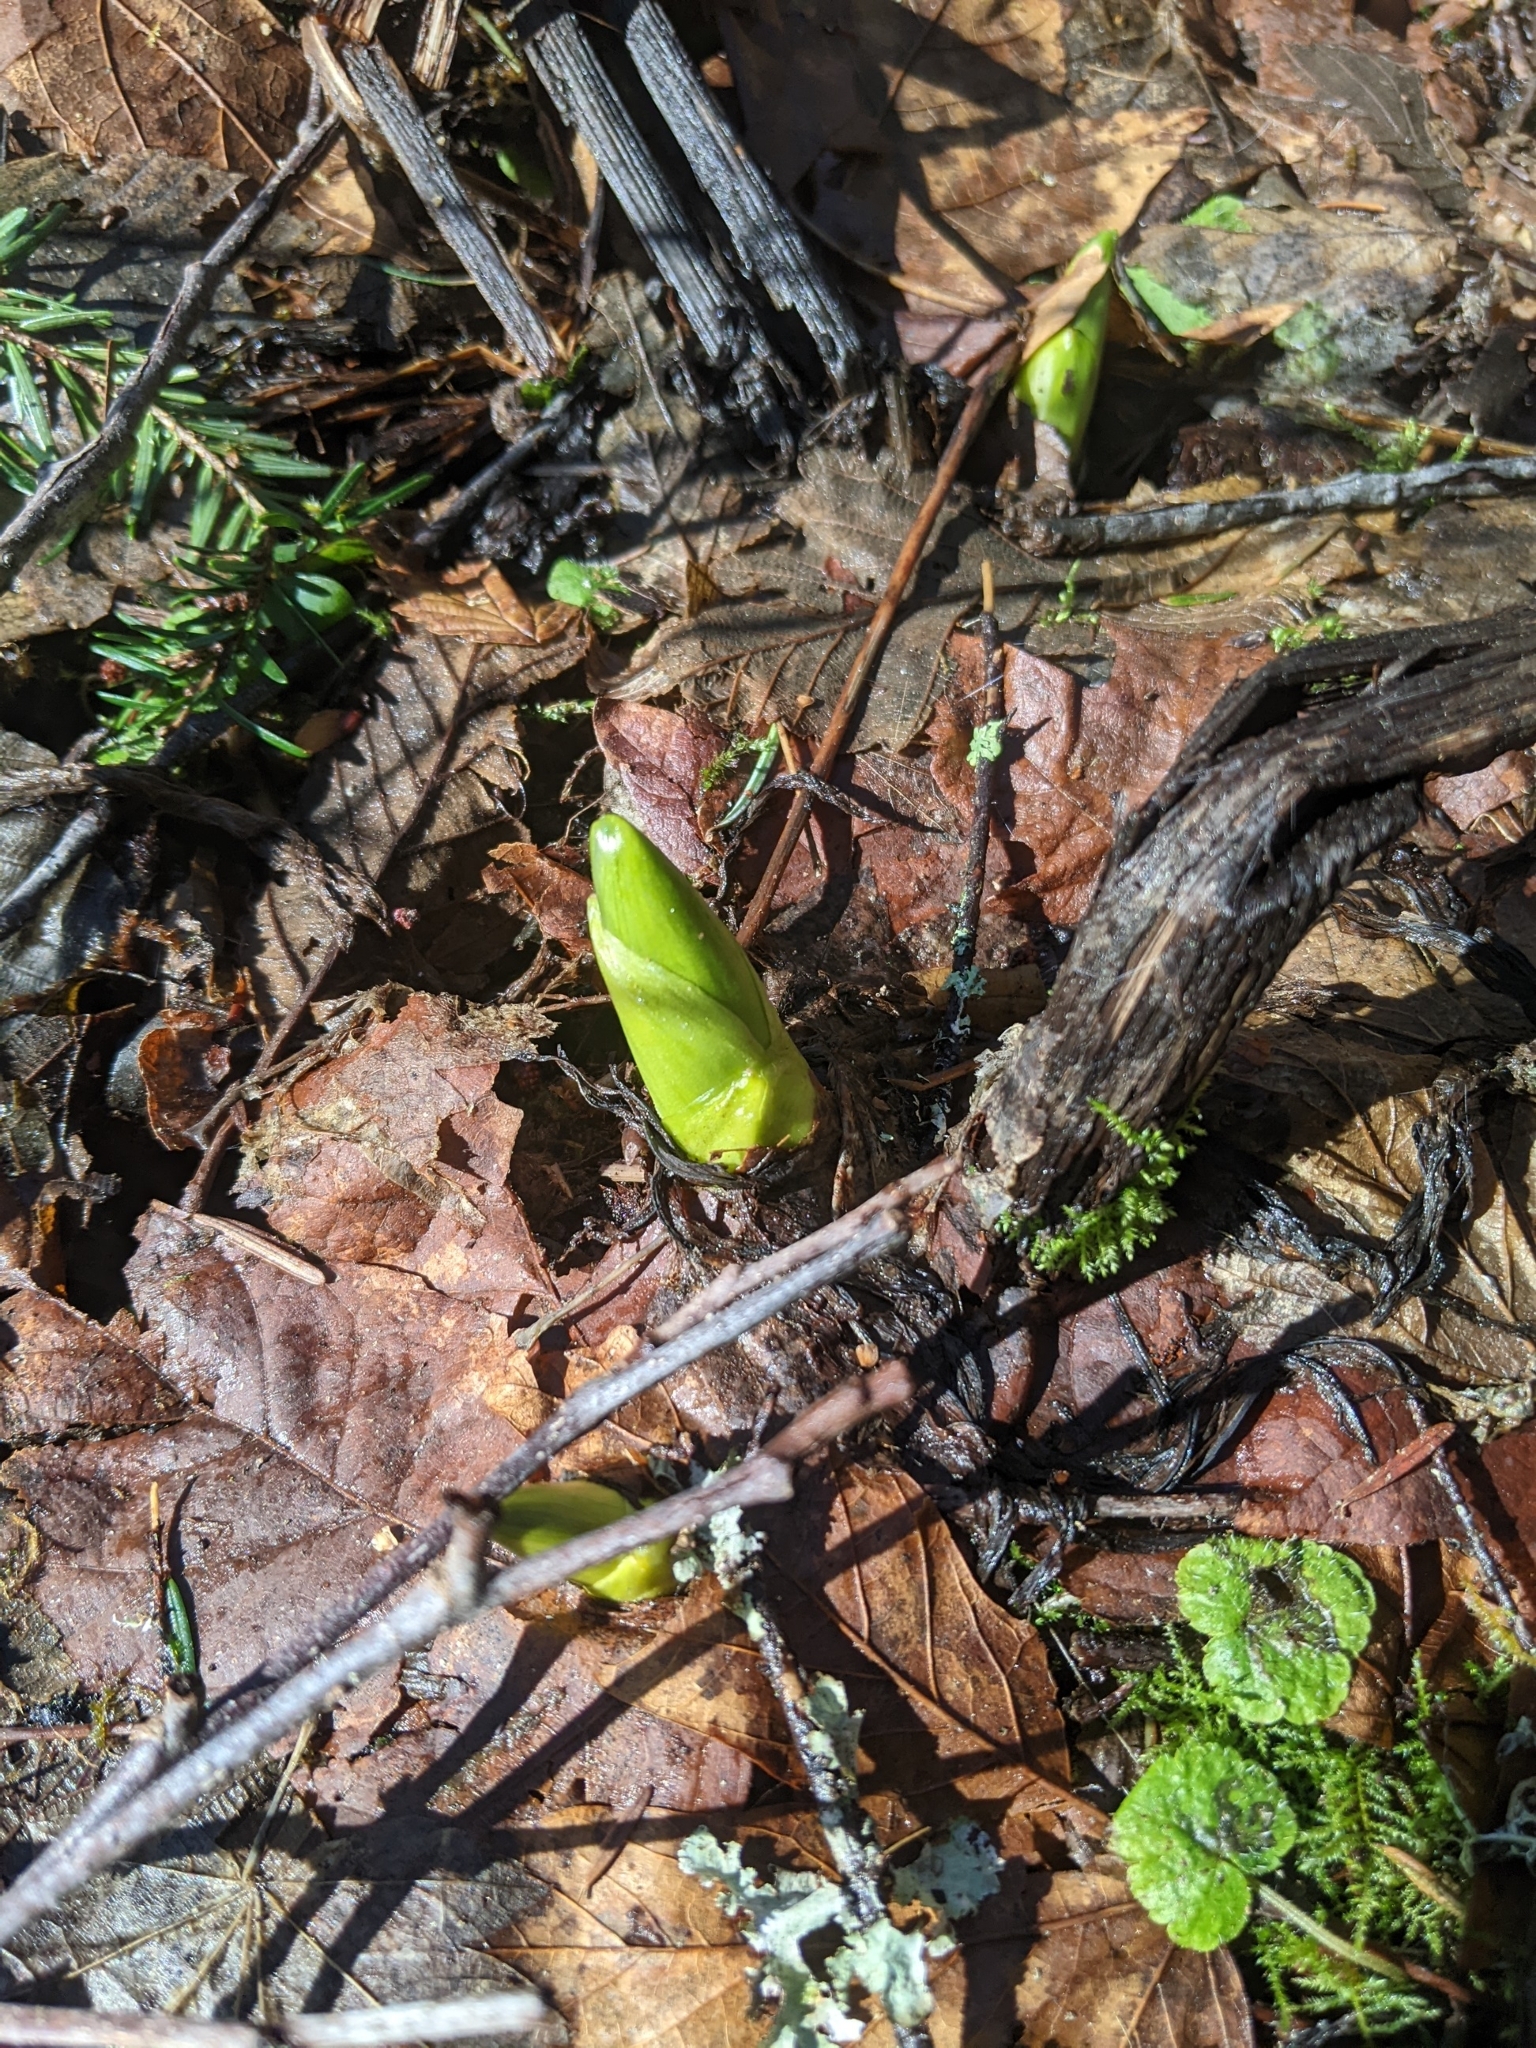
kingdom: Plantae
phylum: Tracheophyta
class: Liliopsida
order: Alismatales
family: Araceae
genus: Lysichiton
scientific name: Lysichiton americanus
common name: American skunk cabbage
